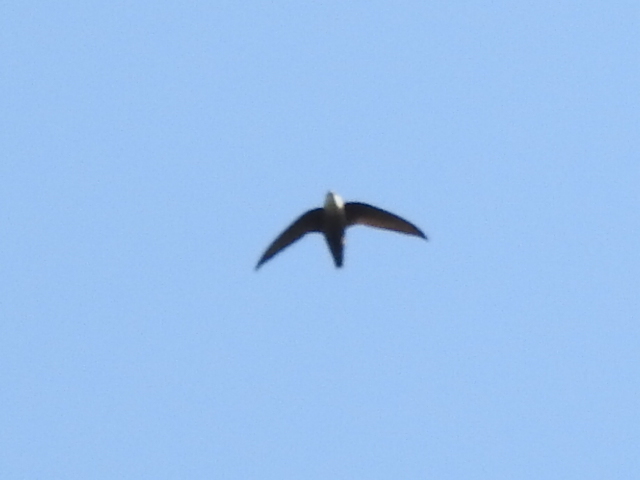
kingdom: Animalia
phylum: Chordata
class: Aves
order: Apodiformes
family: Apodidae
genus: Chaetura
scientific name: Chaetura pelagica
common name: Chimney swift
